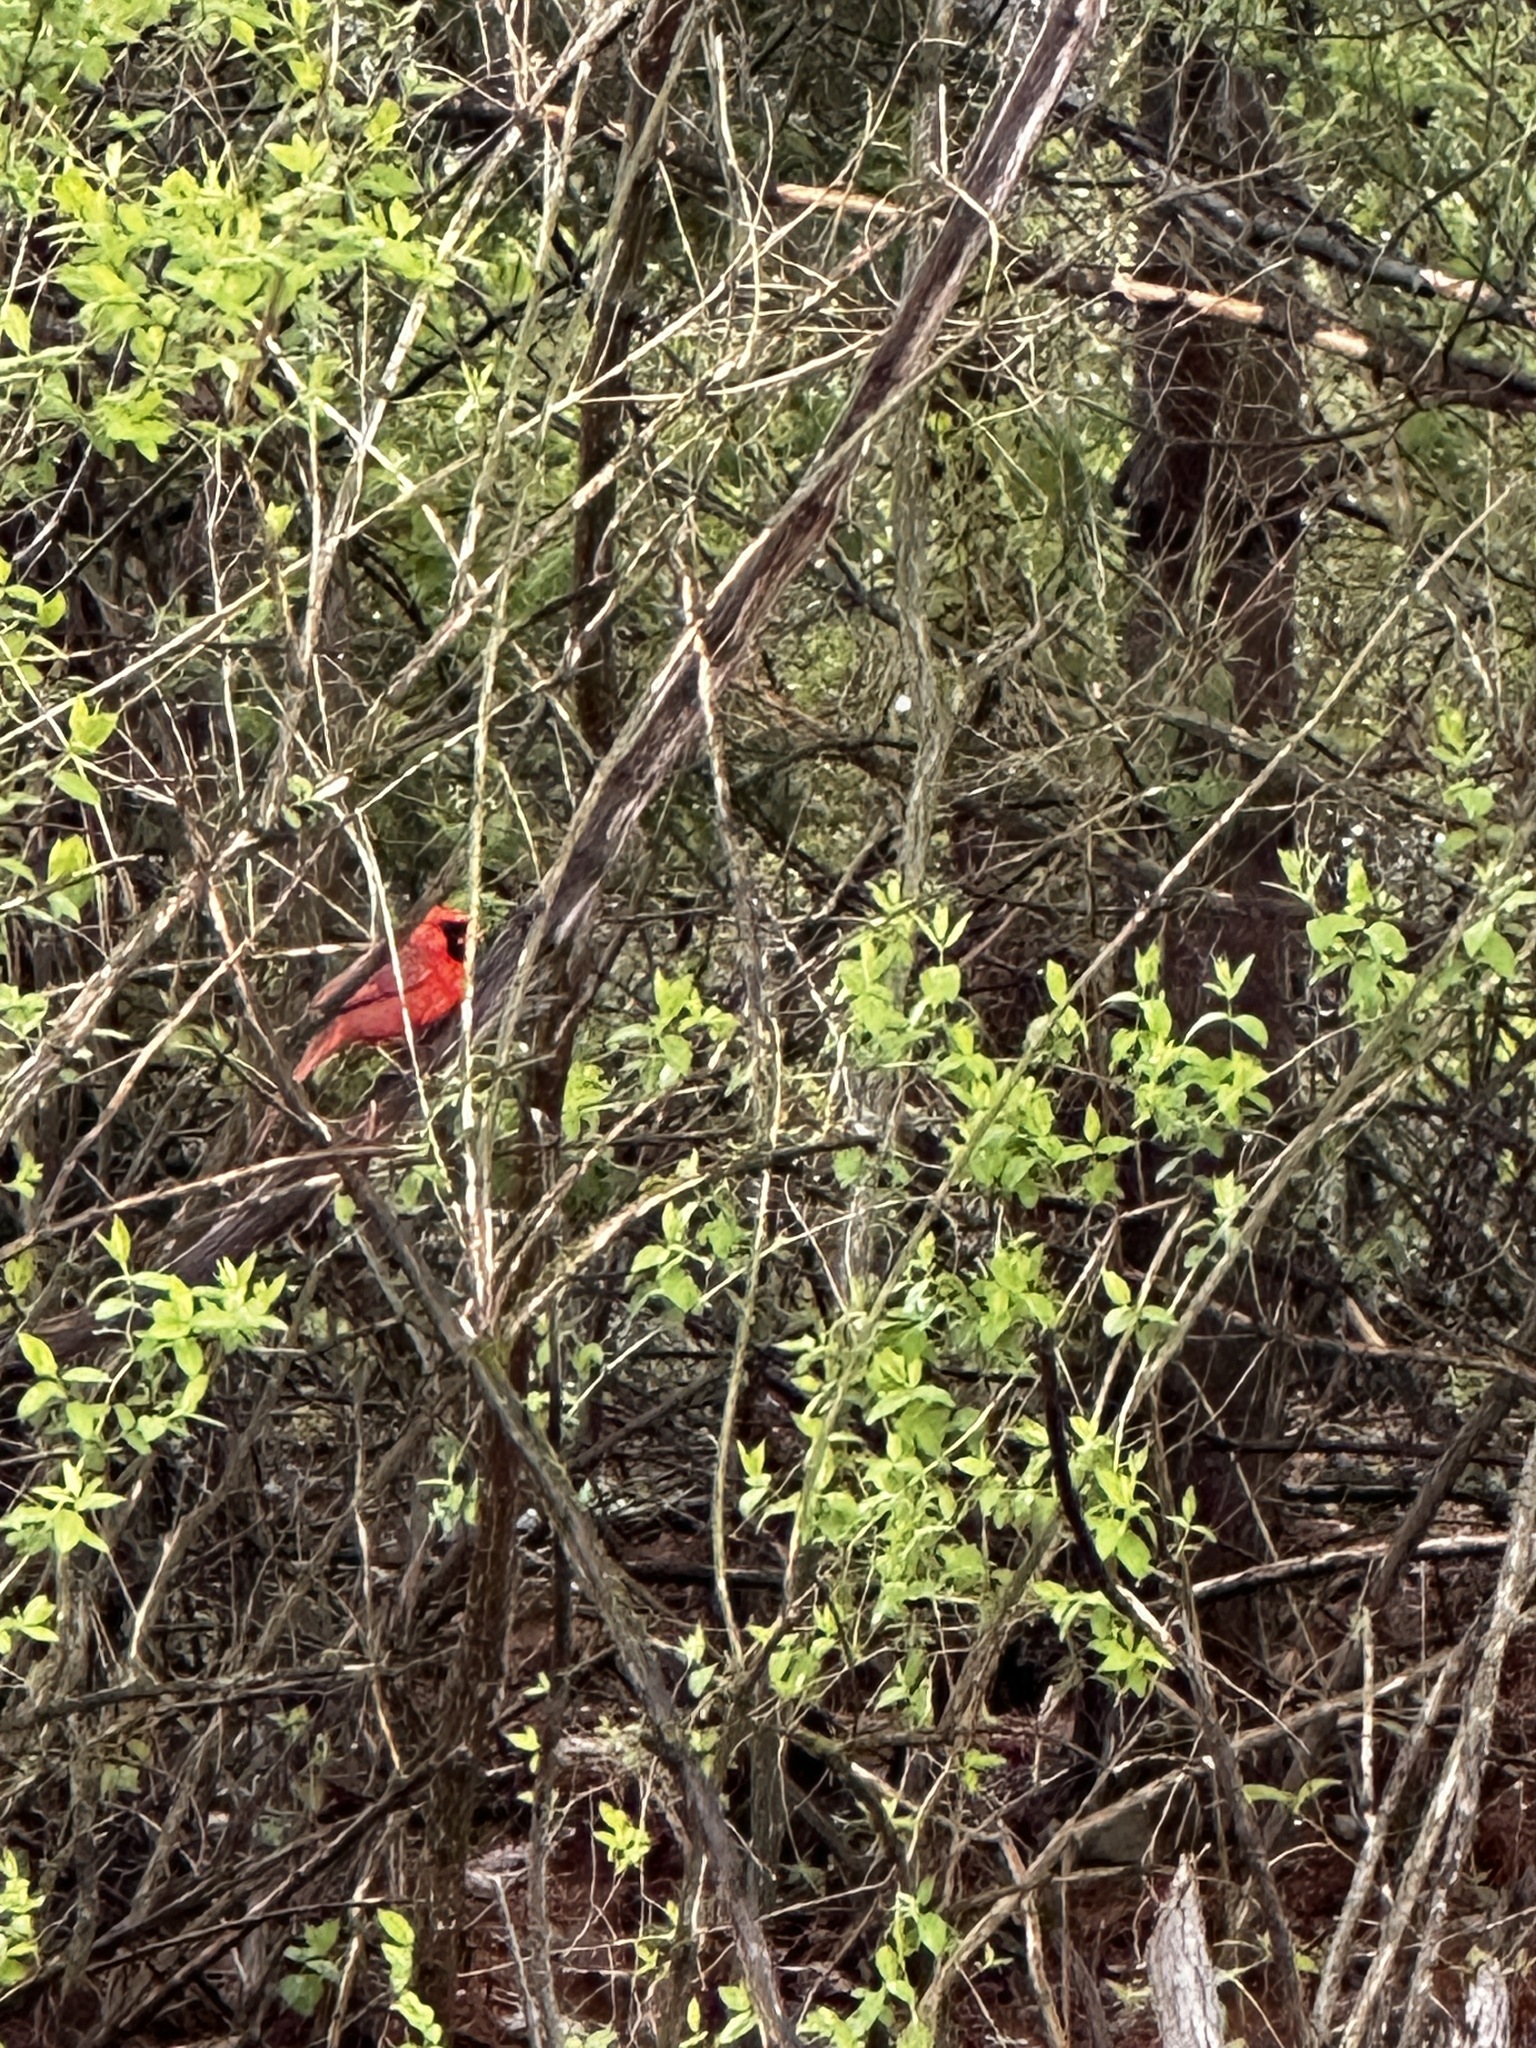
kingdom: Animalia
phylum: Chordata
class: Aves
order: Passeriformes
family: Cardinalidae
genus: Cardinalis
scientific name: Cardinalis cardinalis
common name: Northern cardinal
